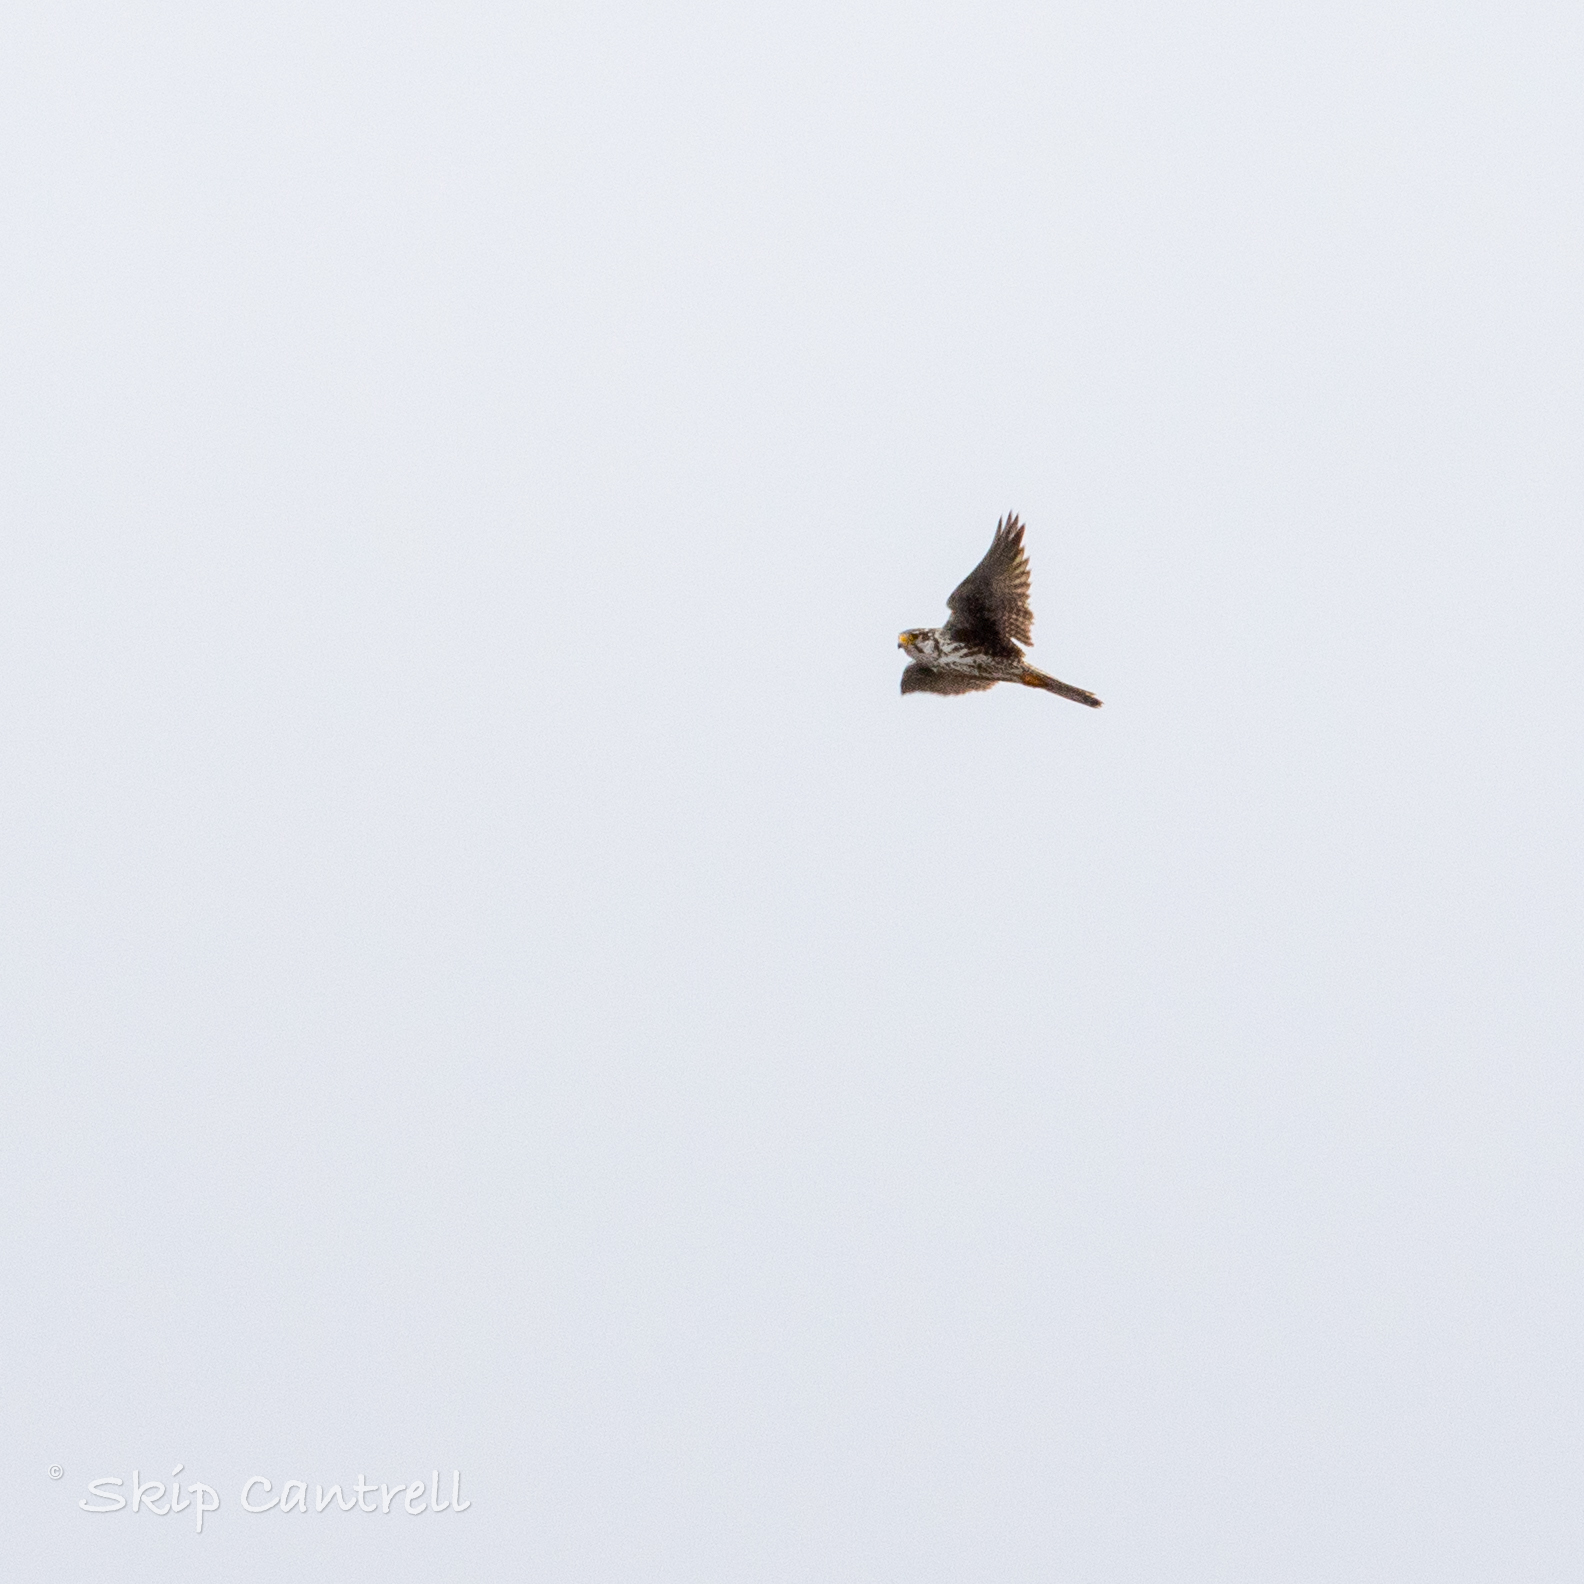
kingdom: Animalia
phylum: Chordata
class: Aves
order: Falconiformes
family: Falconidae
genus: Falco
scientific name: Falco mexicanus
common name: Prairie falcon
